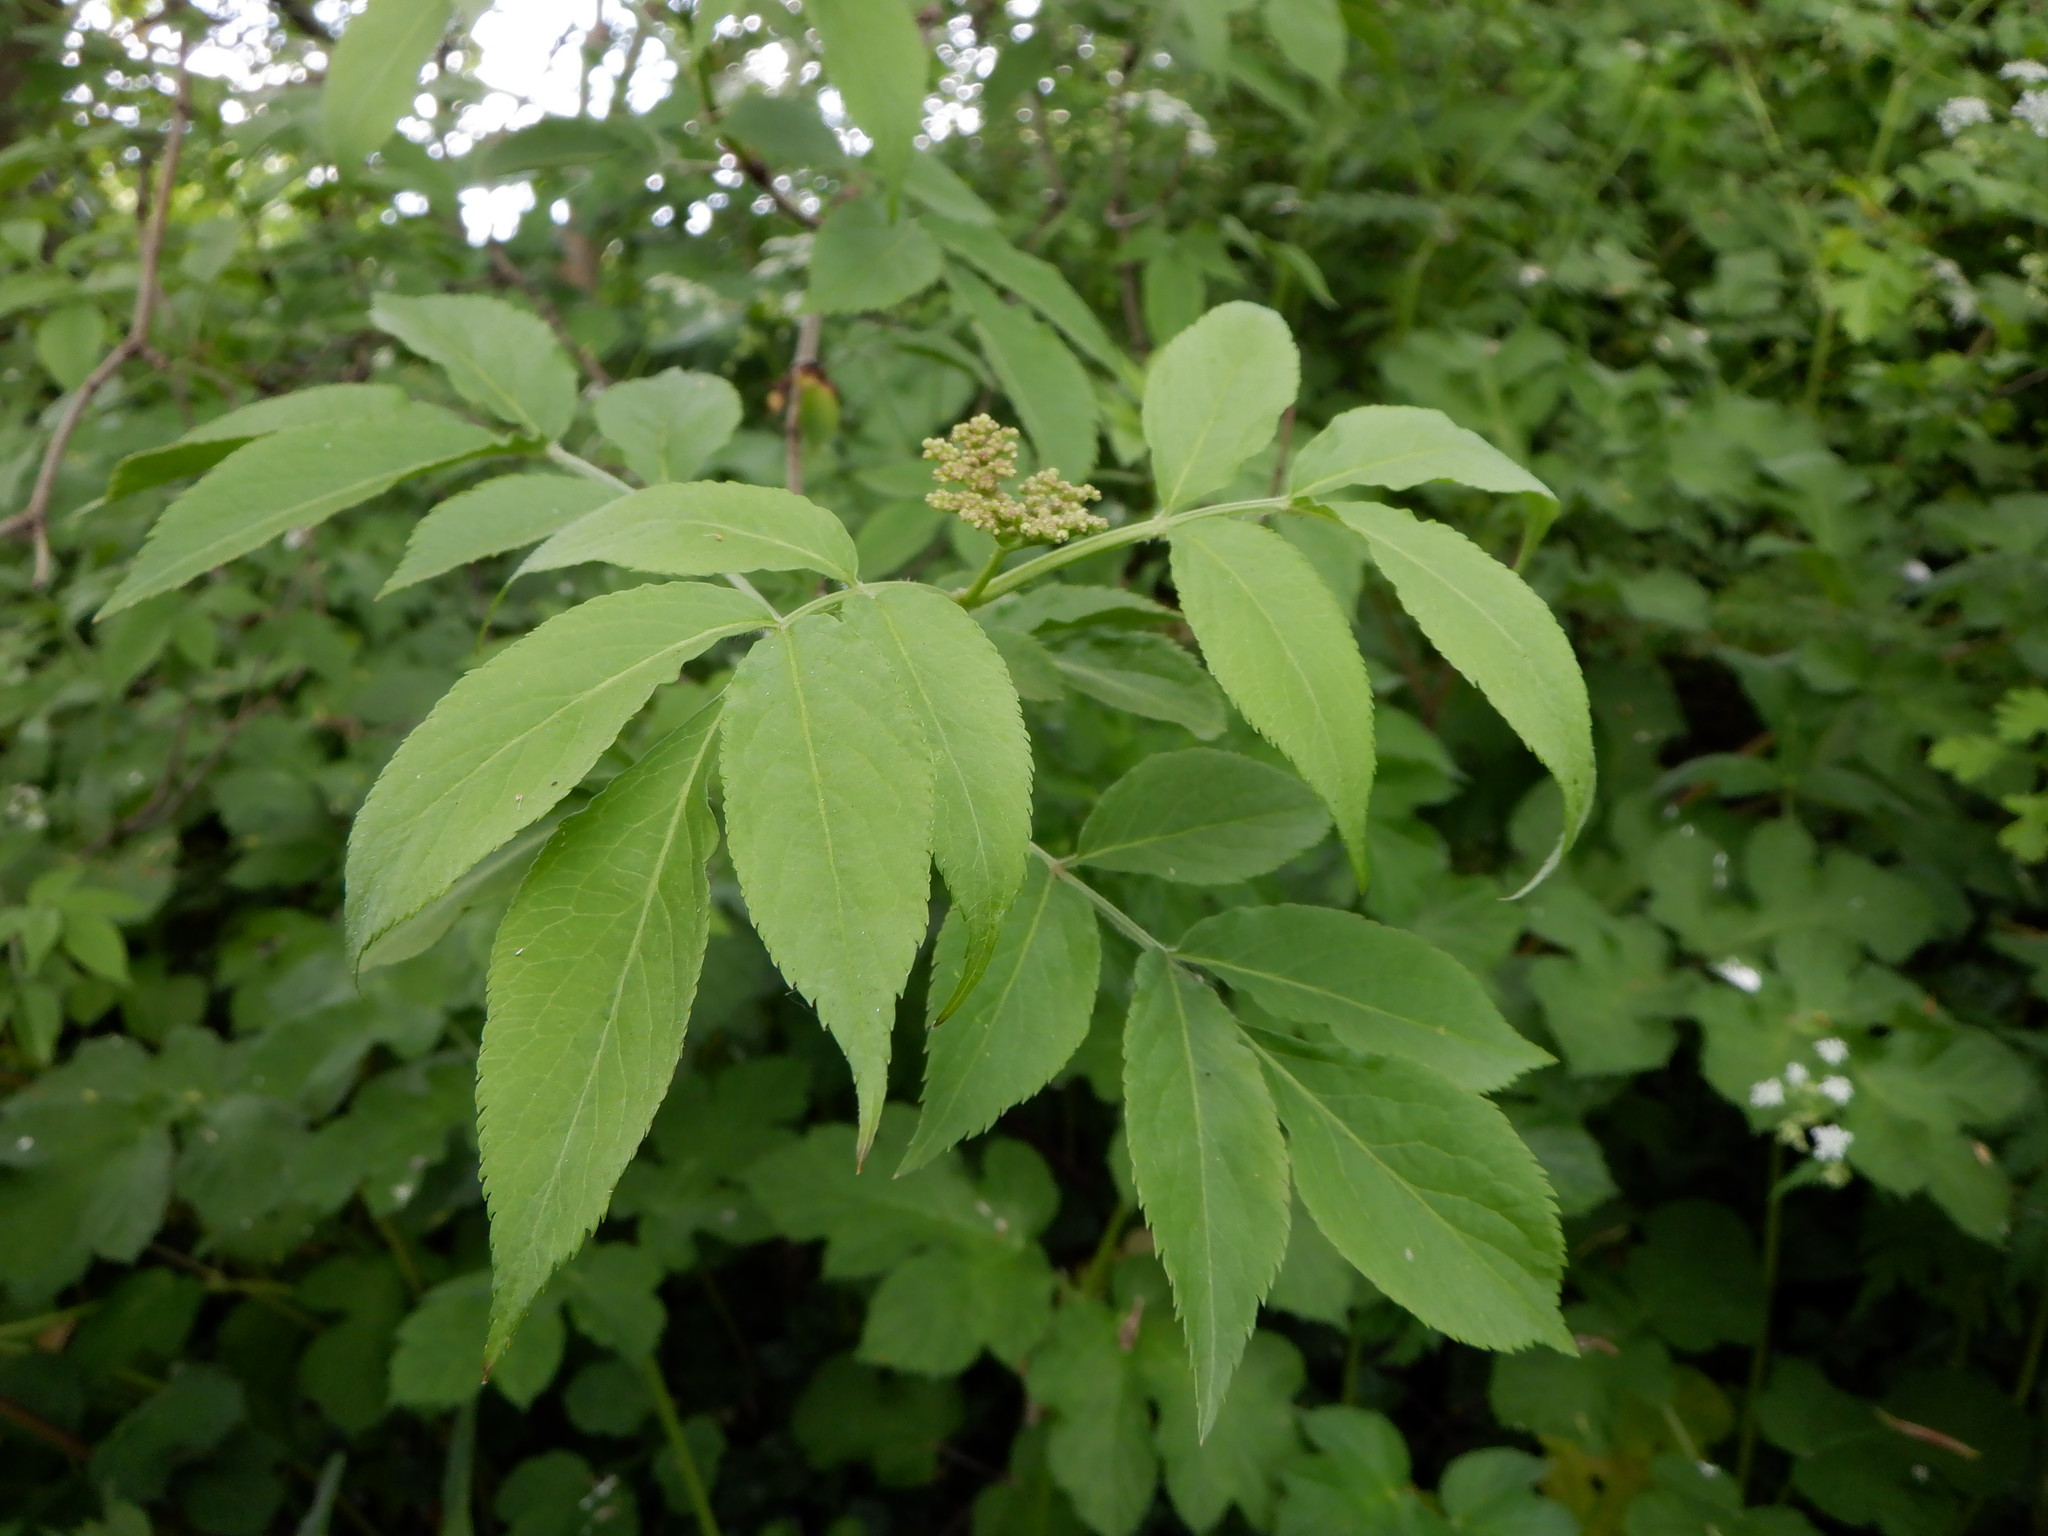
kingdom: Plantae
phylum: Tracheophyta
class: Magnoliopsida
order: Dipsacales
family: Viburnaceae
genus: Sambucus
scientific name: Sambucus nigra
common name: Elder
